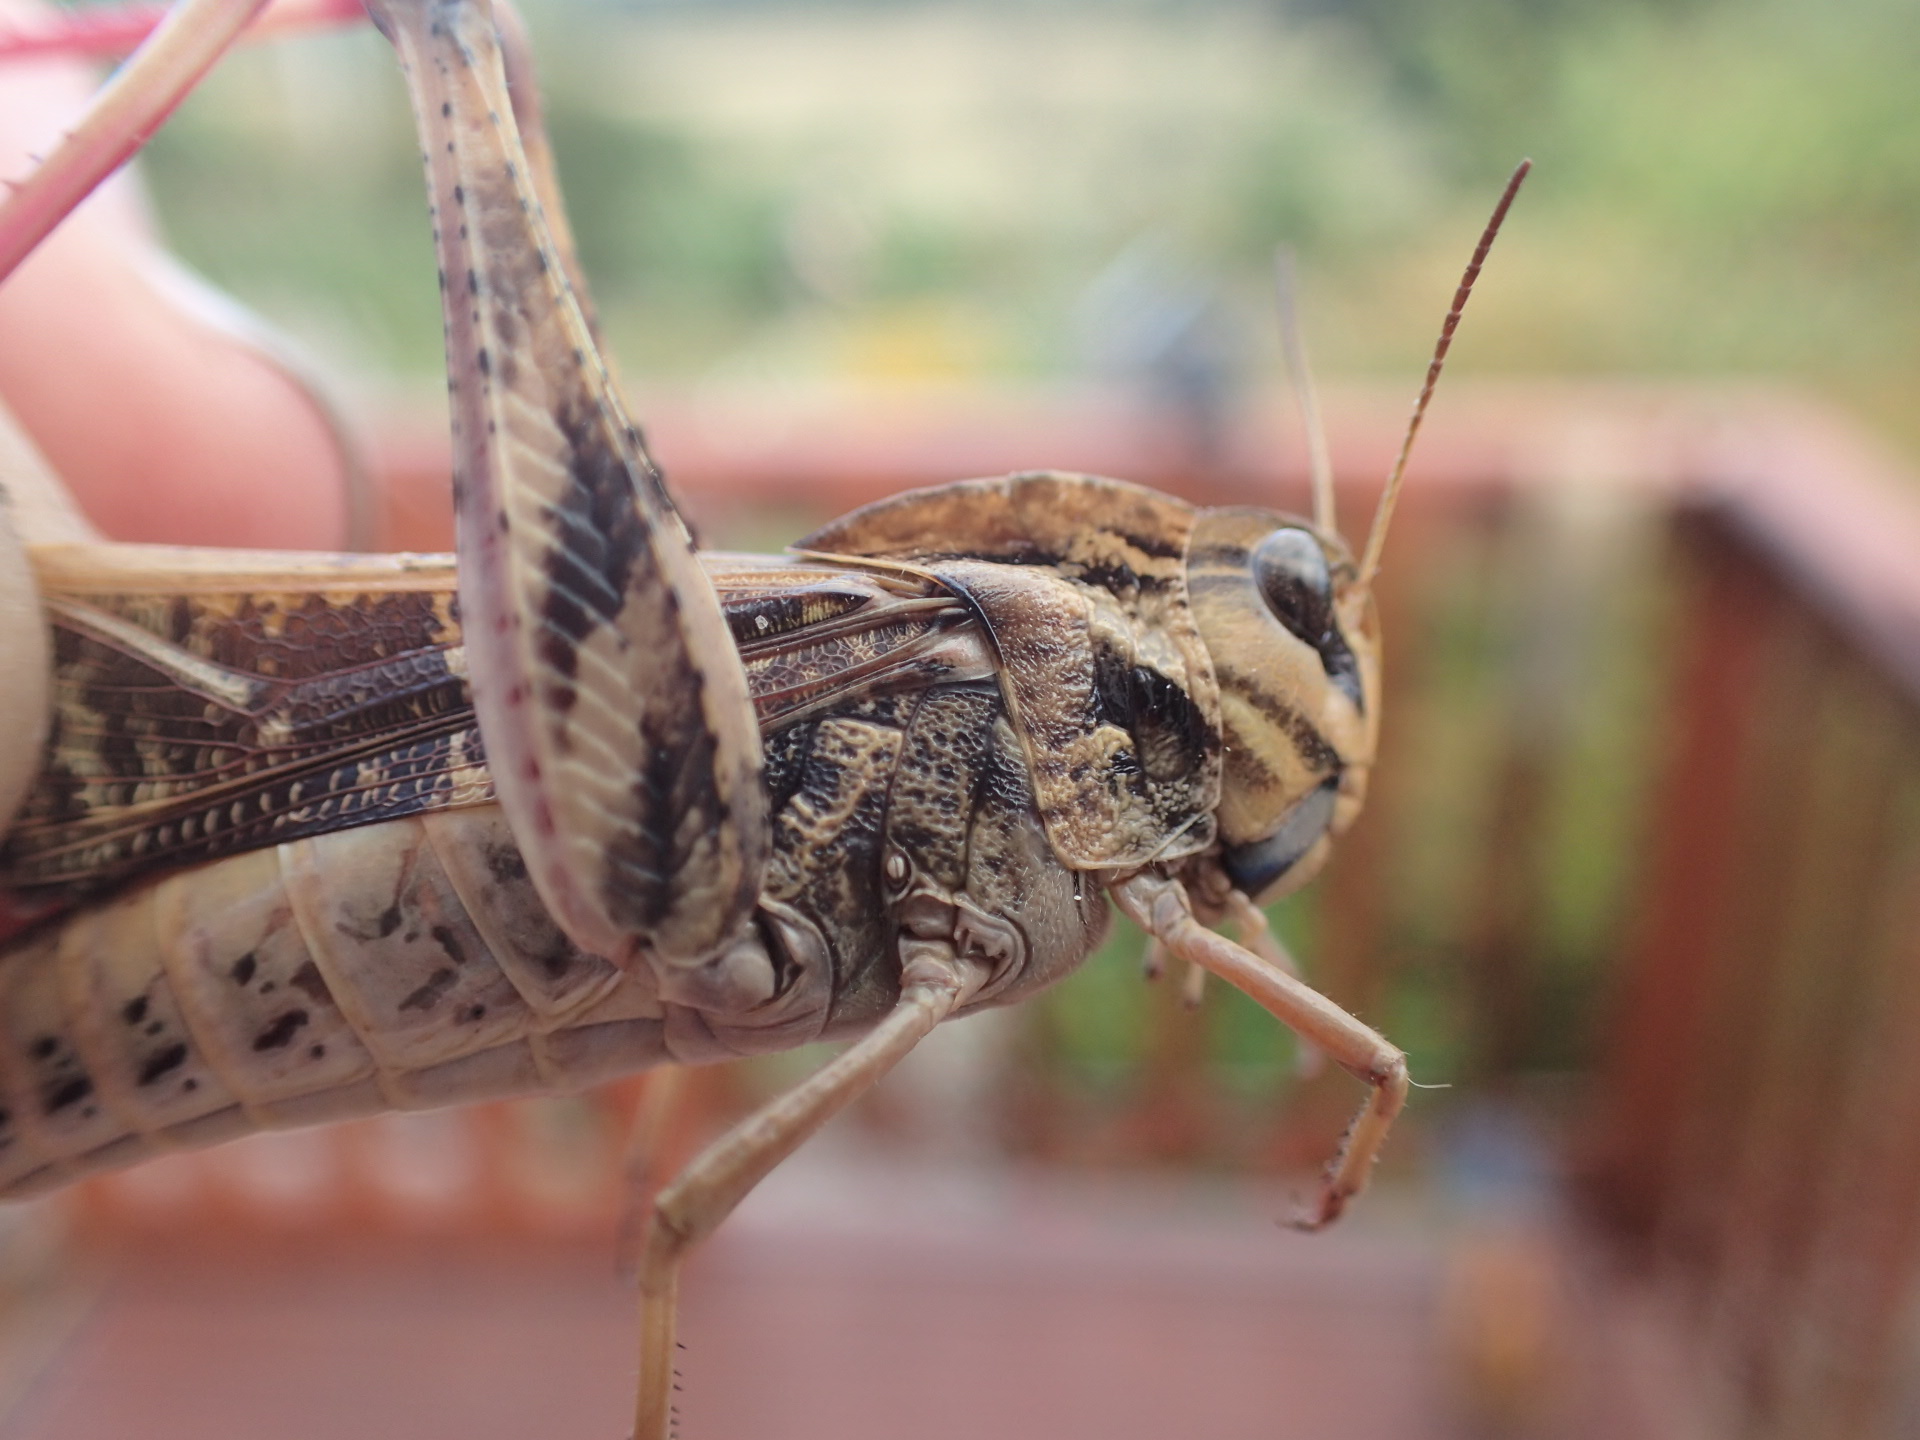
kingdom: Animalia
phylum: Arthropoda
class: Insecta
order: Orthoptera
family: Acrididae
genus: Gastrimargus
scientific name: Gastrimargus musicus
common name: Yellow-winged locust
